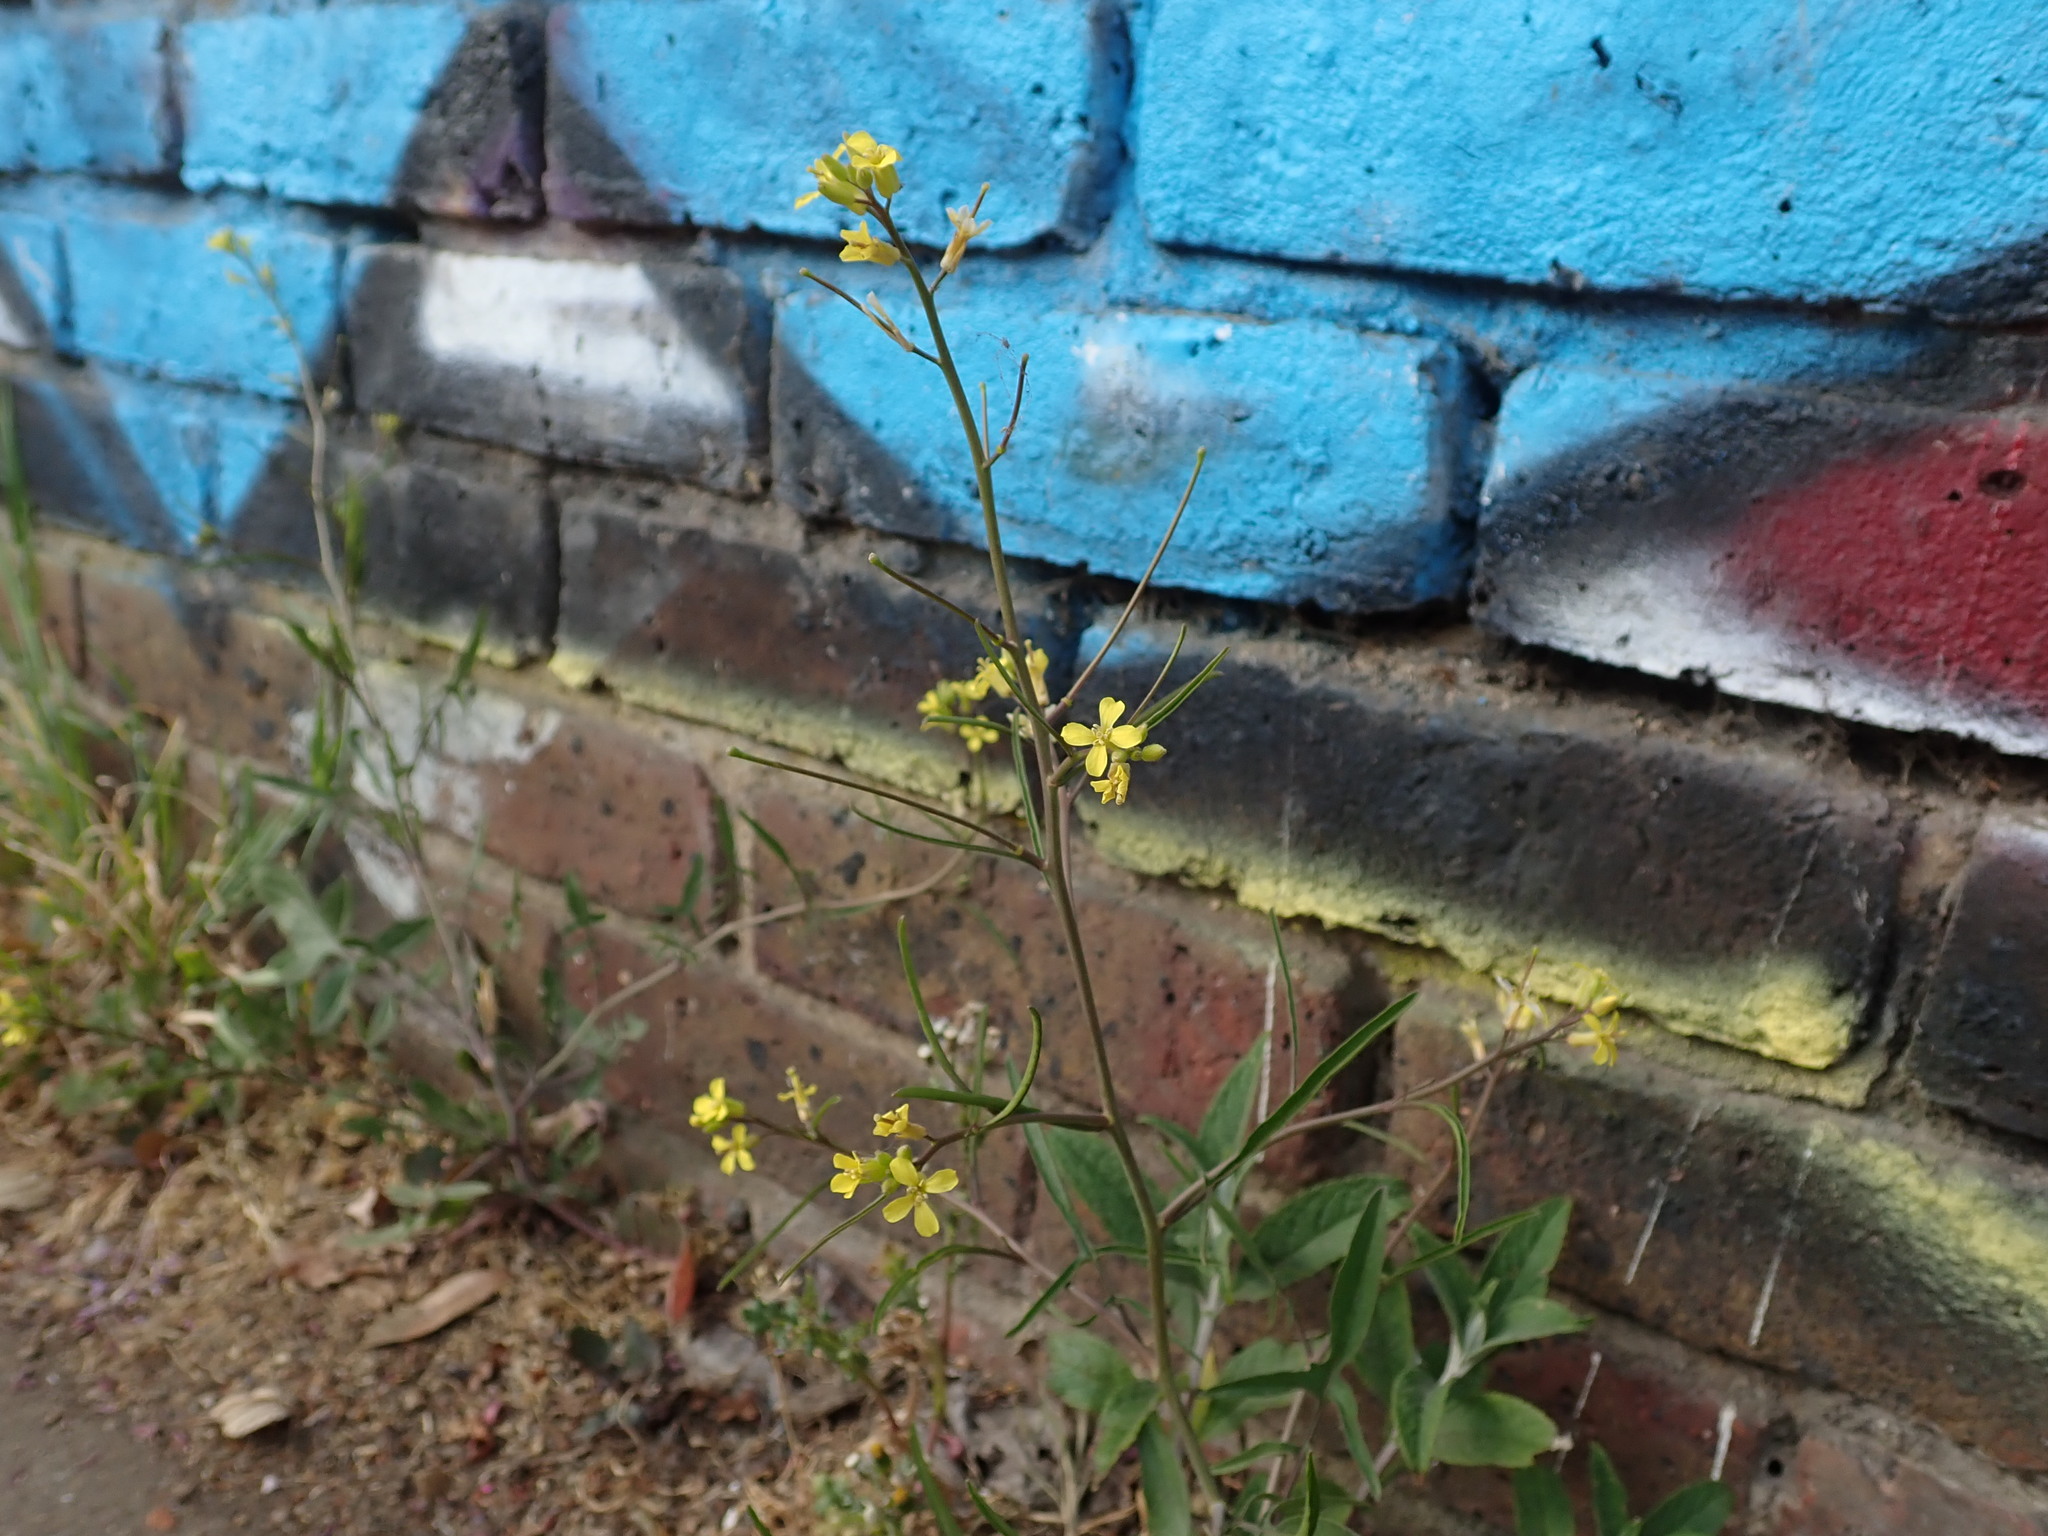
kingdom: Plantae
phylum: Tracheophyta
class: Magnoliopsida
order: Brassicales
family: Brassicaceae
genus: Sisymbrium
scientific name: Sisymbrium orientale
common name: Eastern rocket
